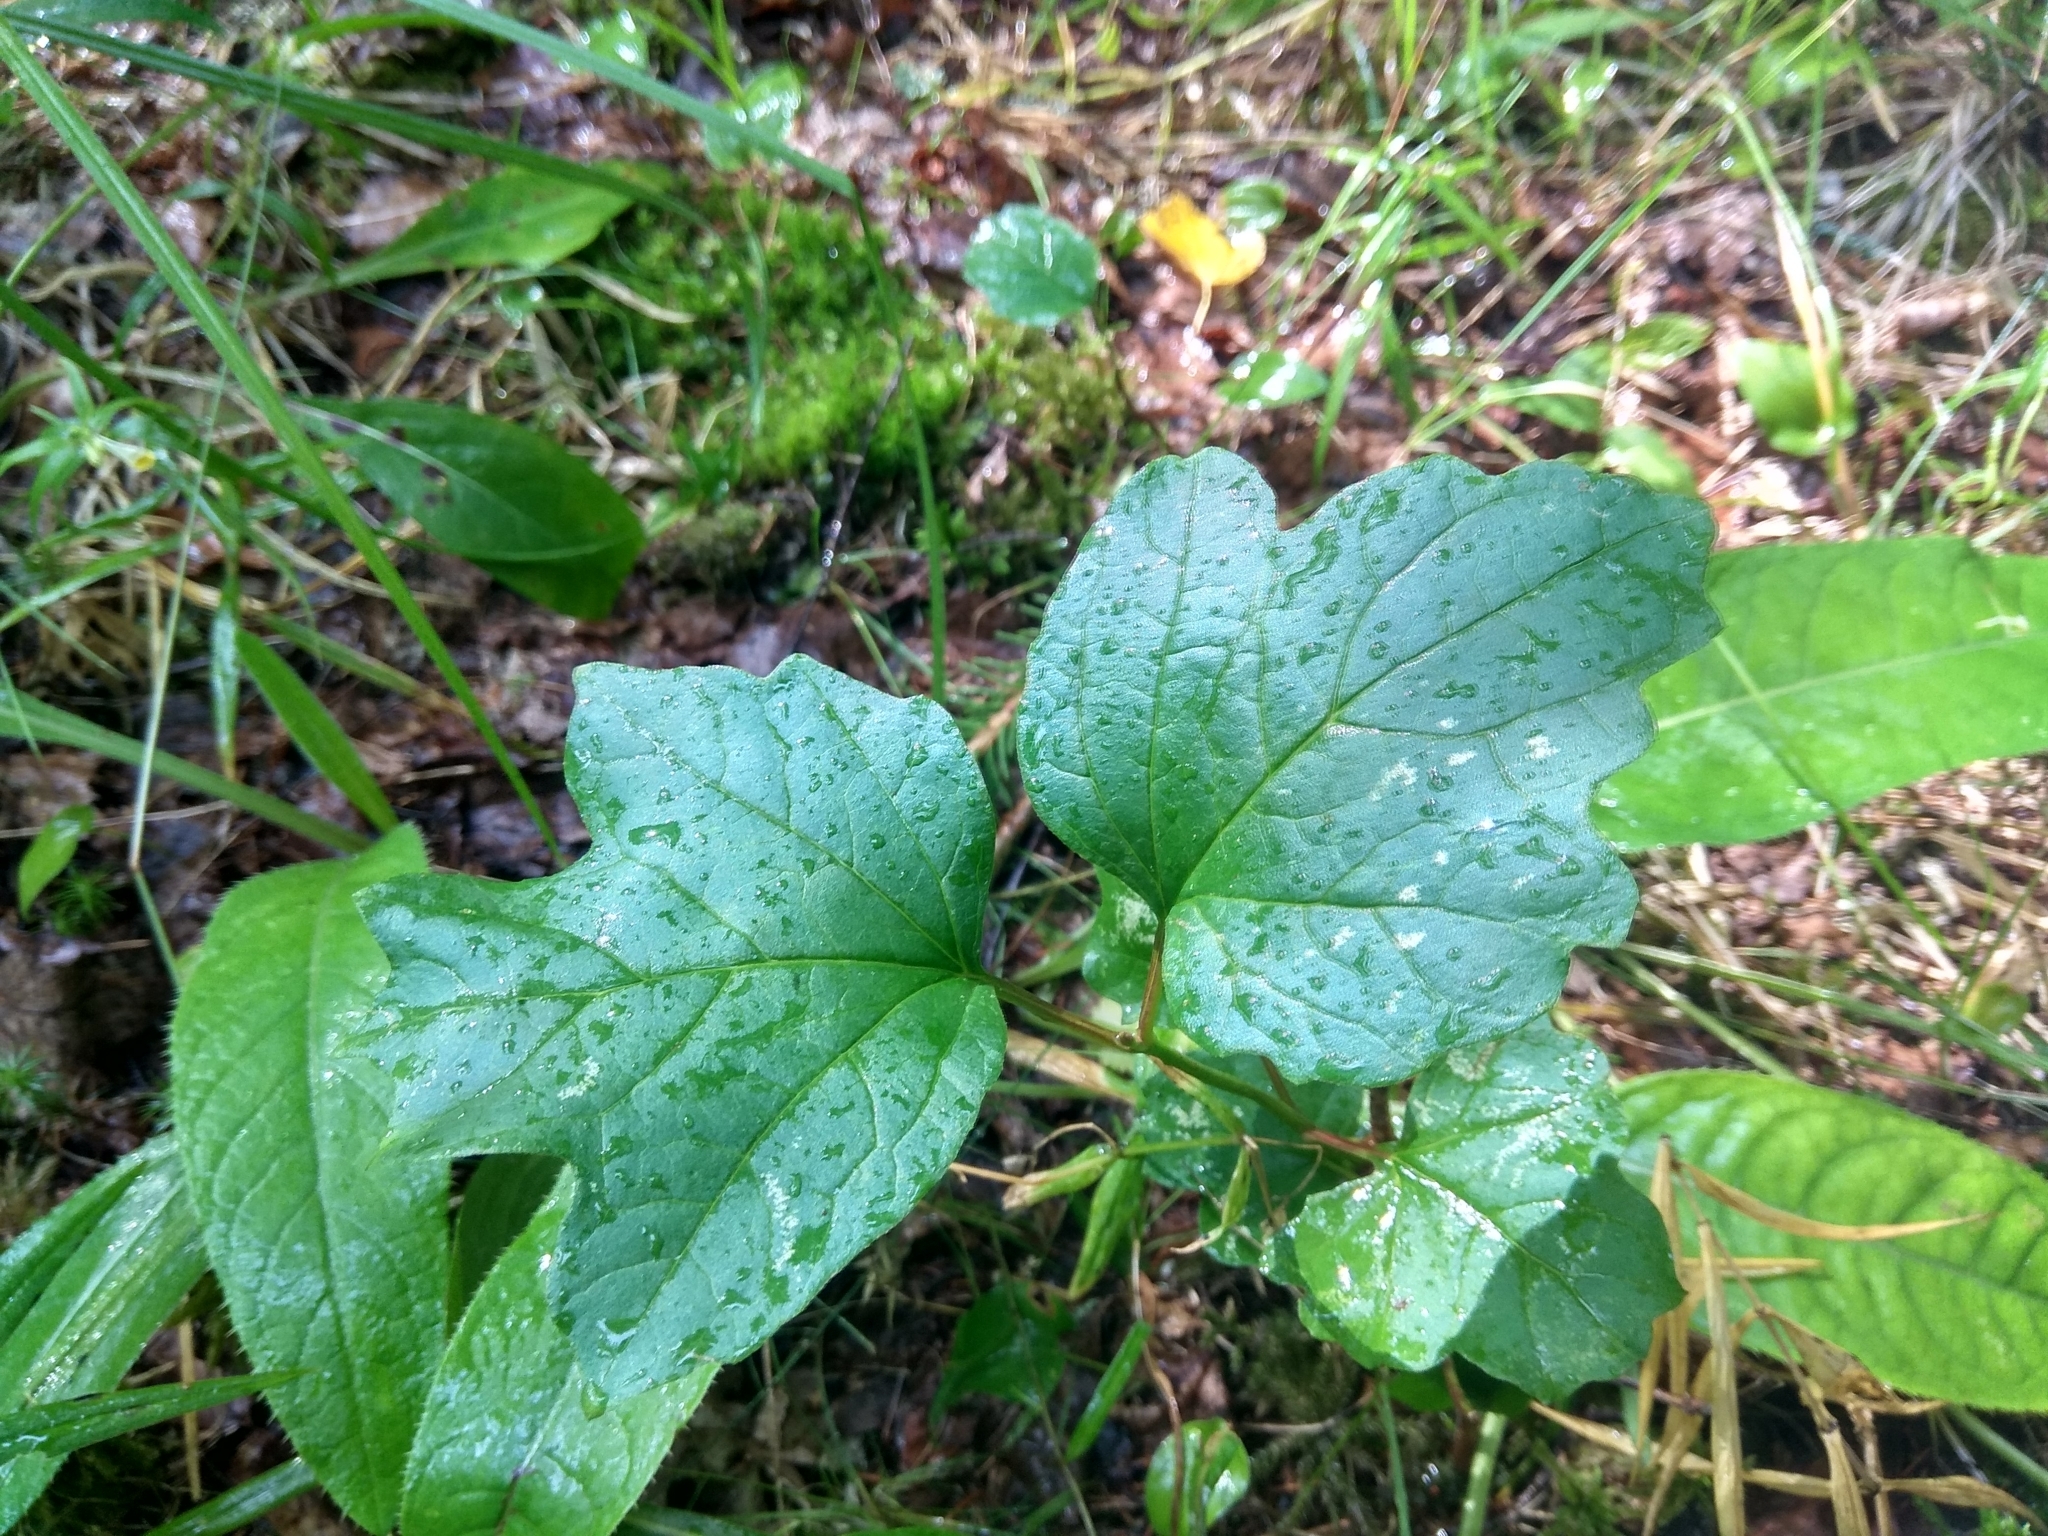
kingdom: Plantae
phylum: Tracheophyta
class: Magnoliopsida
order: Dipsacales
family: Viburnaceae
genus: Viburnum
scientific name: Viburnum opulus
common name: Guelder-rose
